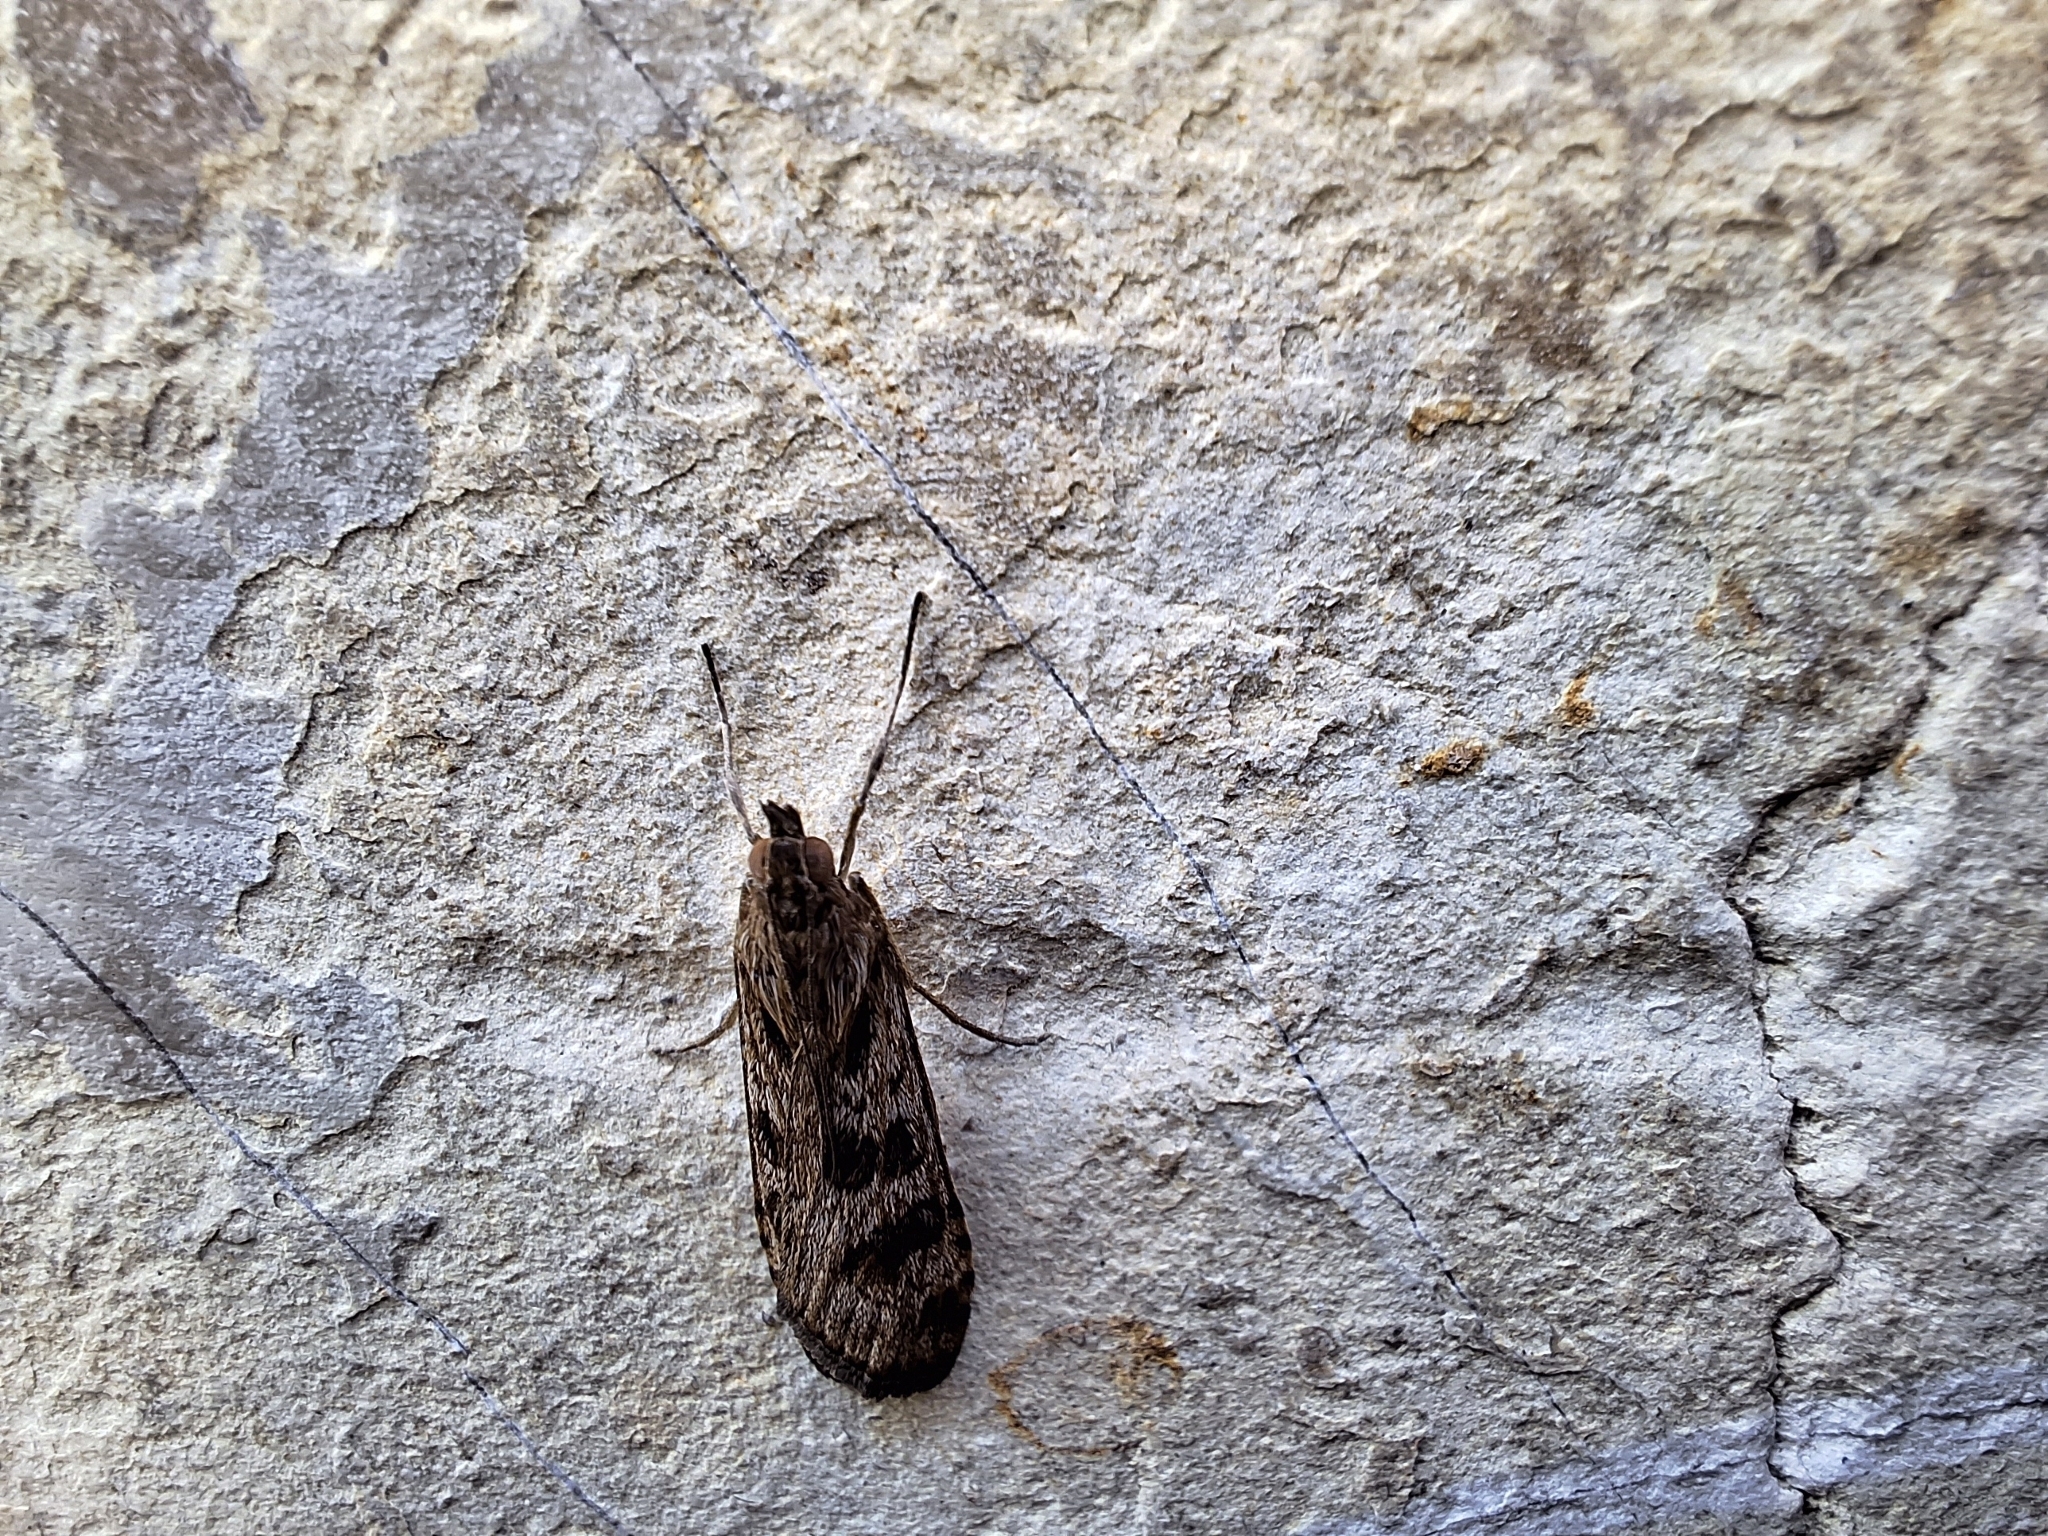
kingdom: Animalia
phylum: Arthropoda
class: Insecta
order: Lepidoptera
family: Crambidae
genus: Nomophila
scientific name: Nomophila noctuella
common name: Rush veneer
